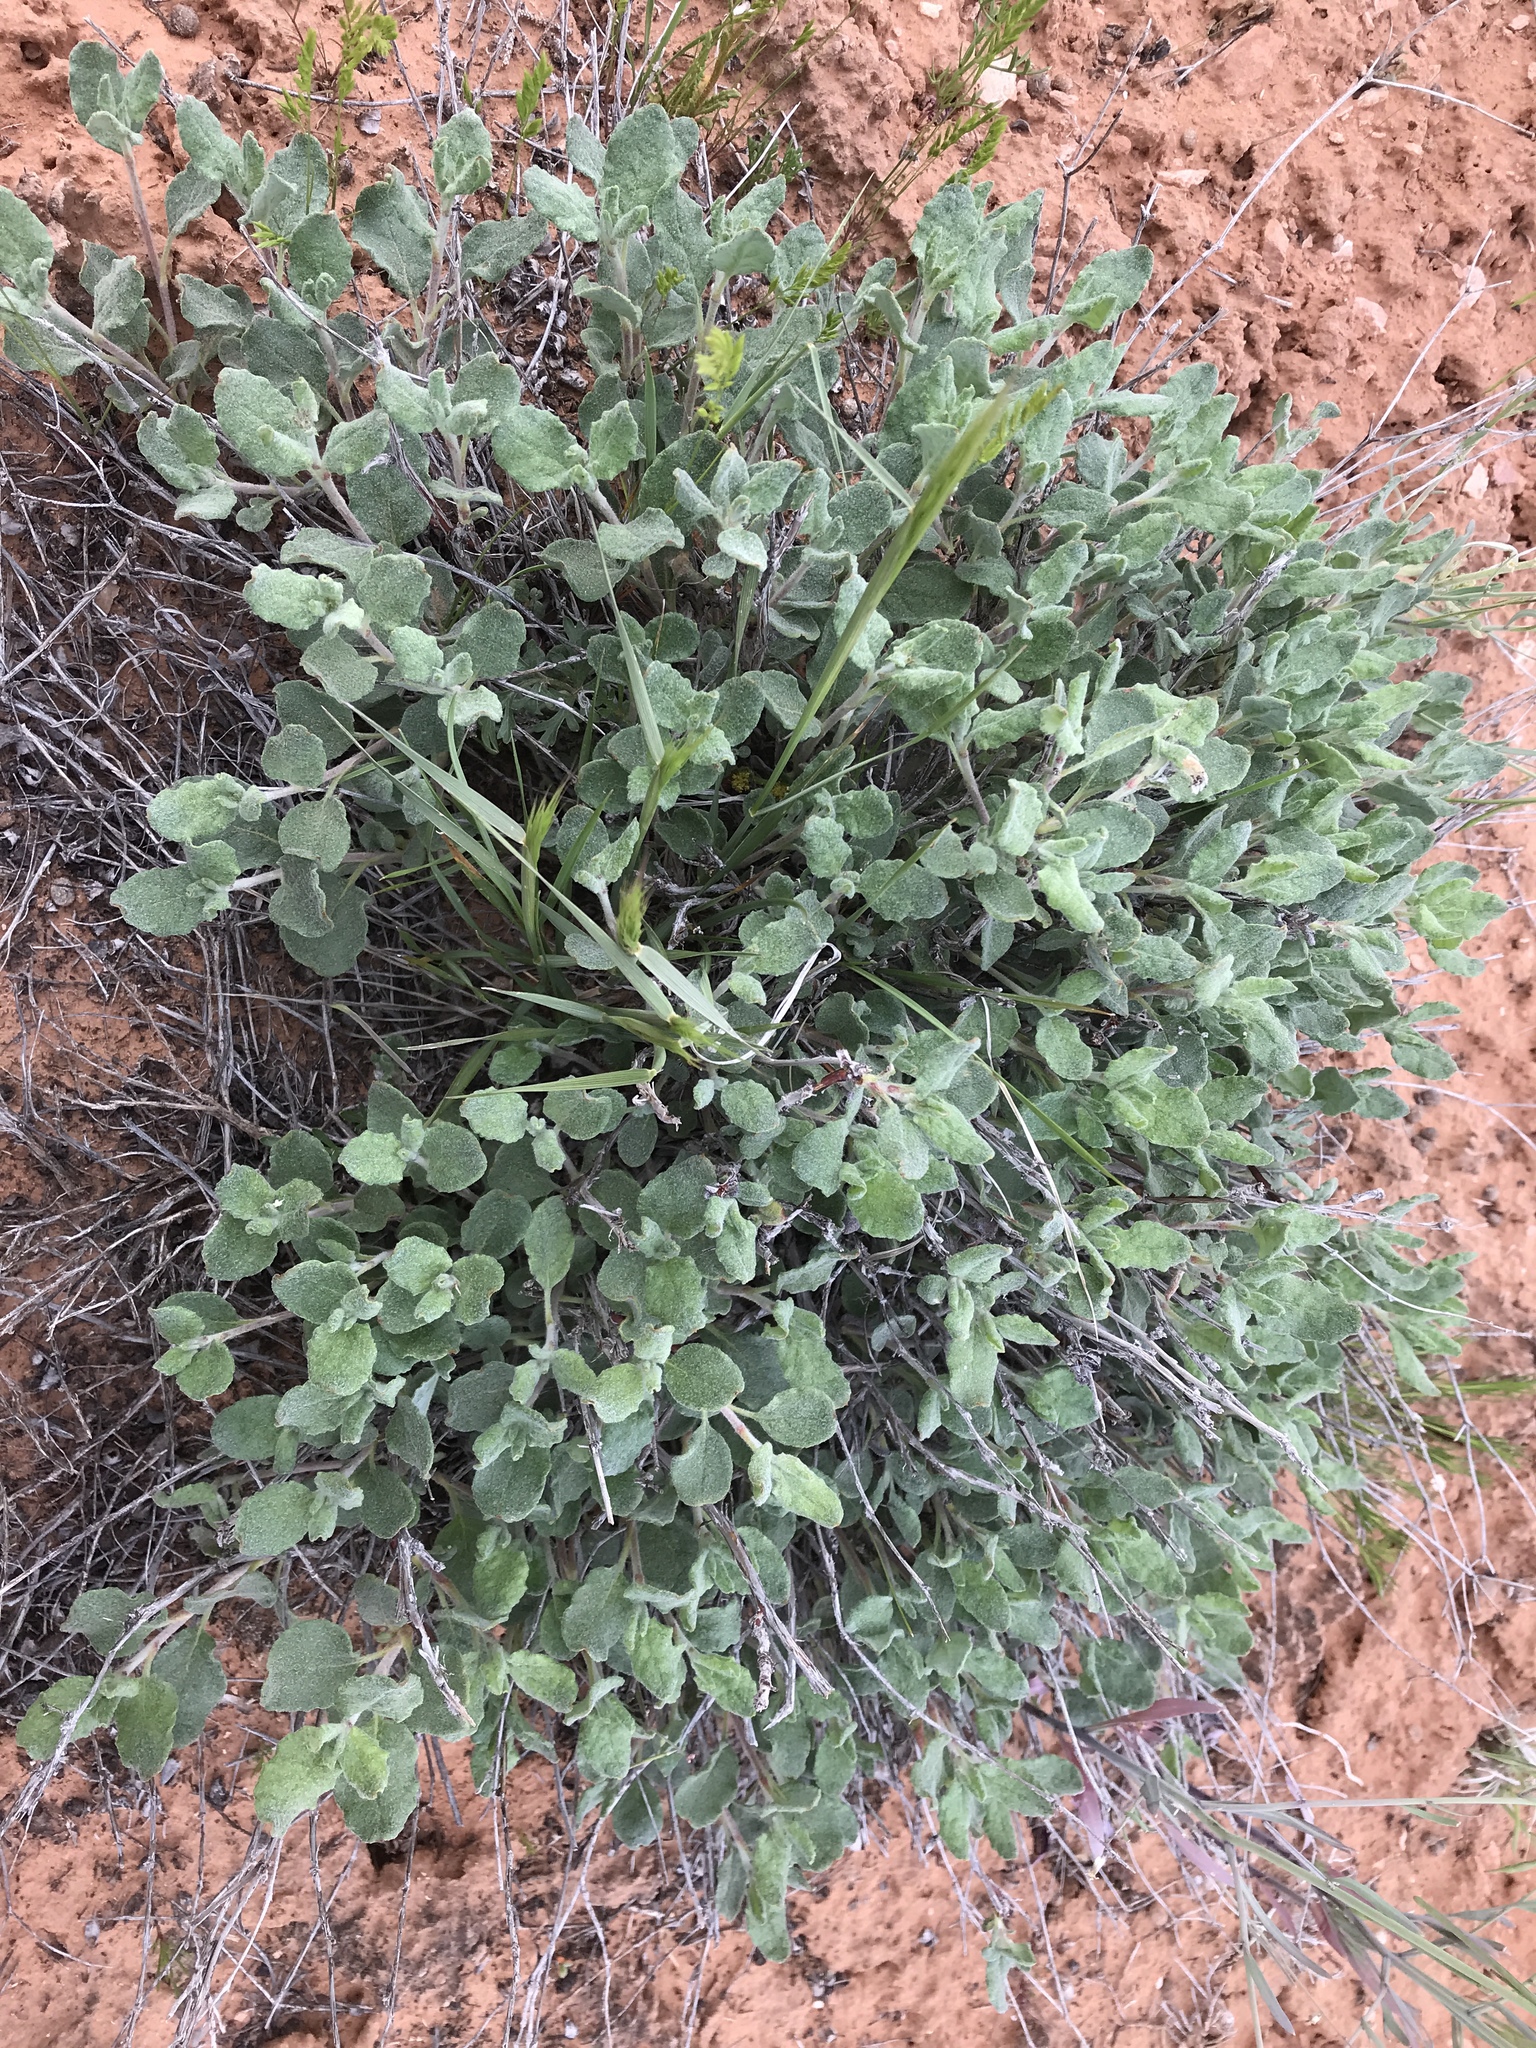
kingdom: Plantae
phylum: Tracheophyta
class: Magnoliopsida
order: Caryophyllales
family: Polygonaceae
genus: Eriogonum
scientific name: Eriogonum corymbosum
